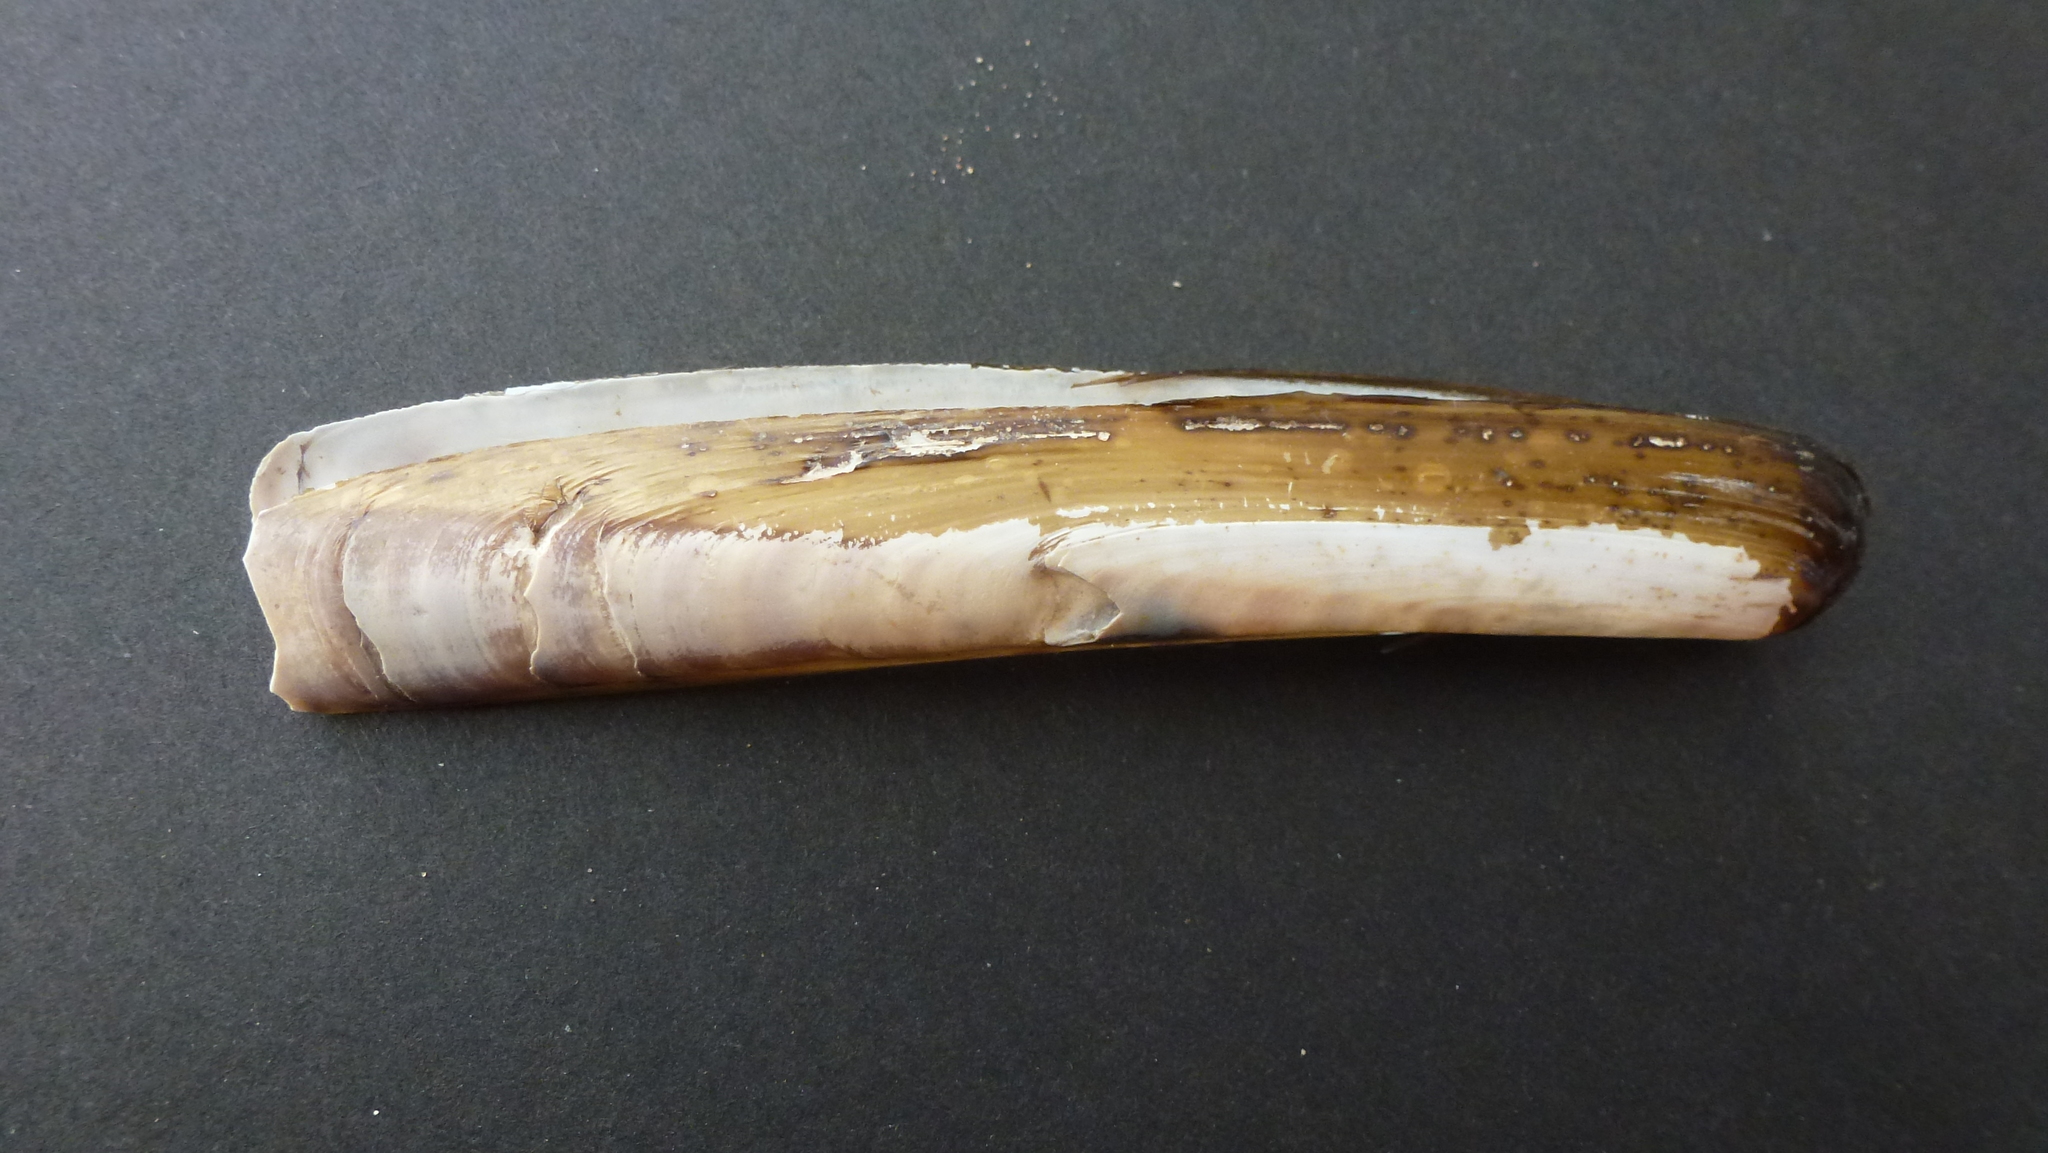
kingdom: Animalia
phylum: Mollusca
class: Bivalvia
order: Adapedonta
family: Pharidae
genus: Ensis
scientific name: Ensis leei
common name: American jack knife clam
